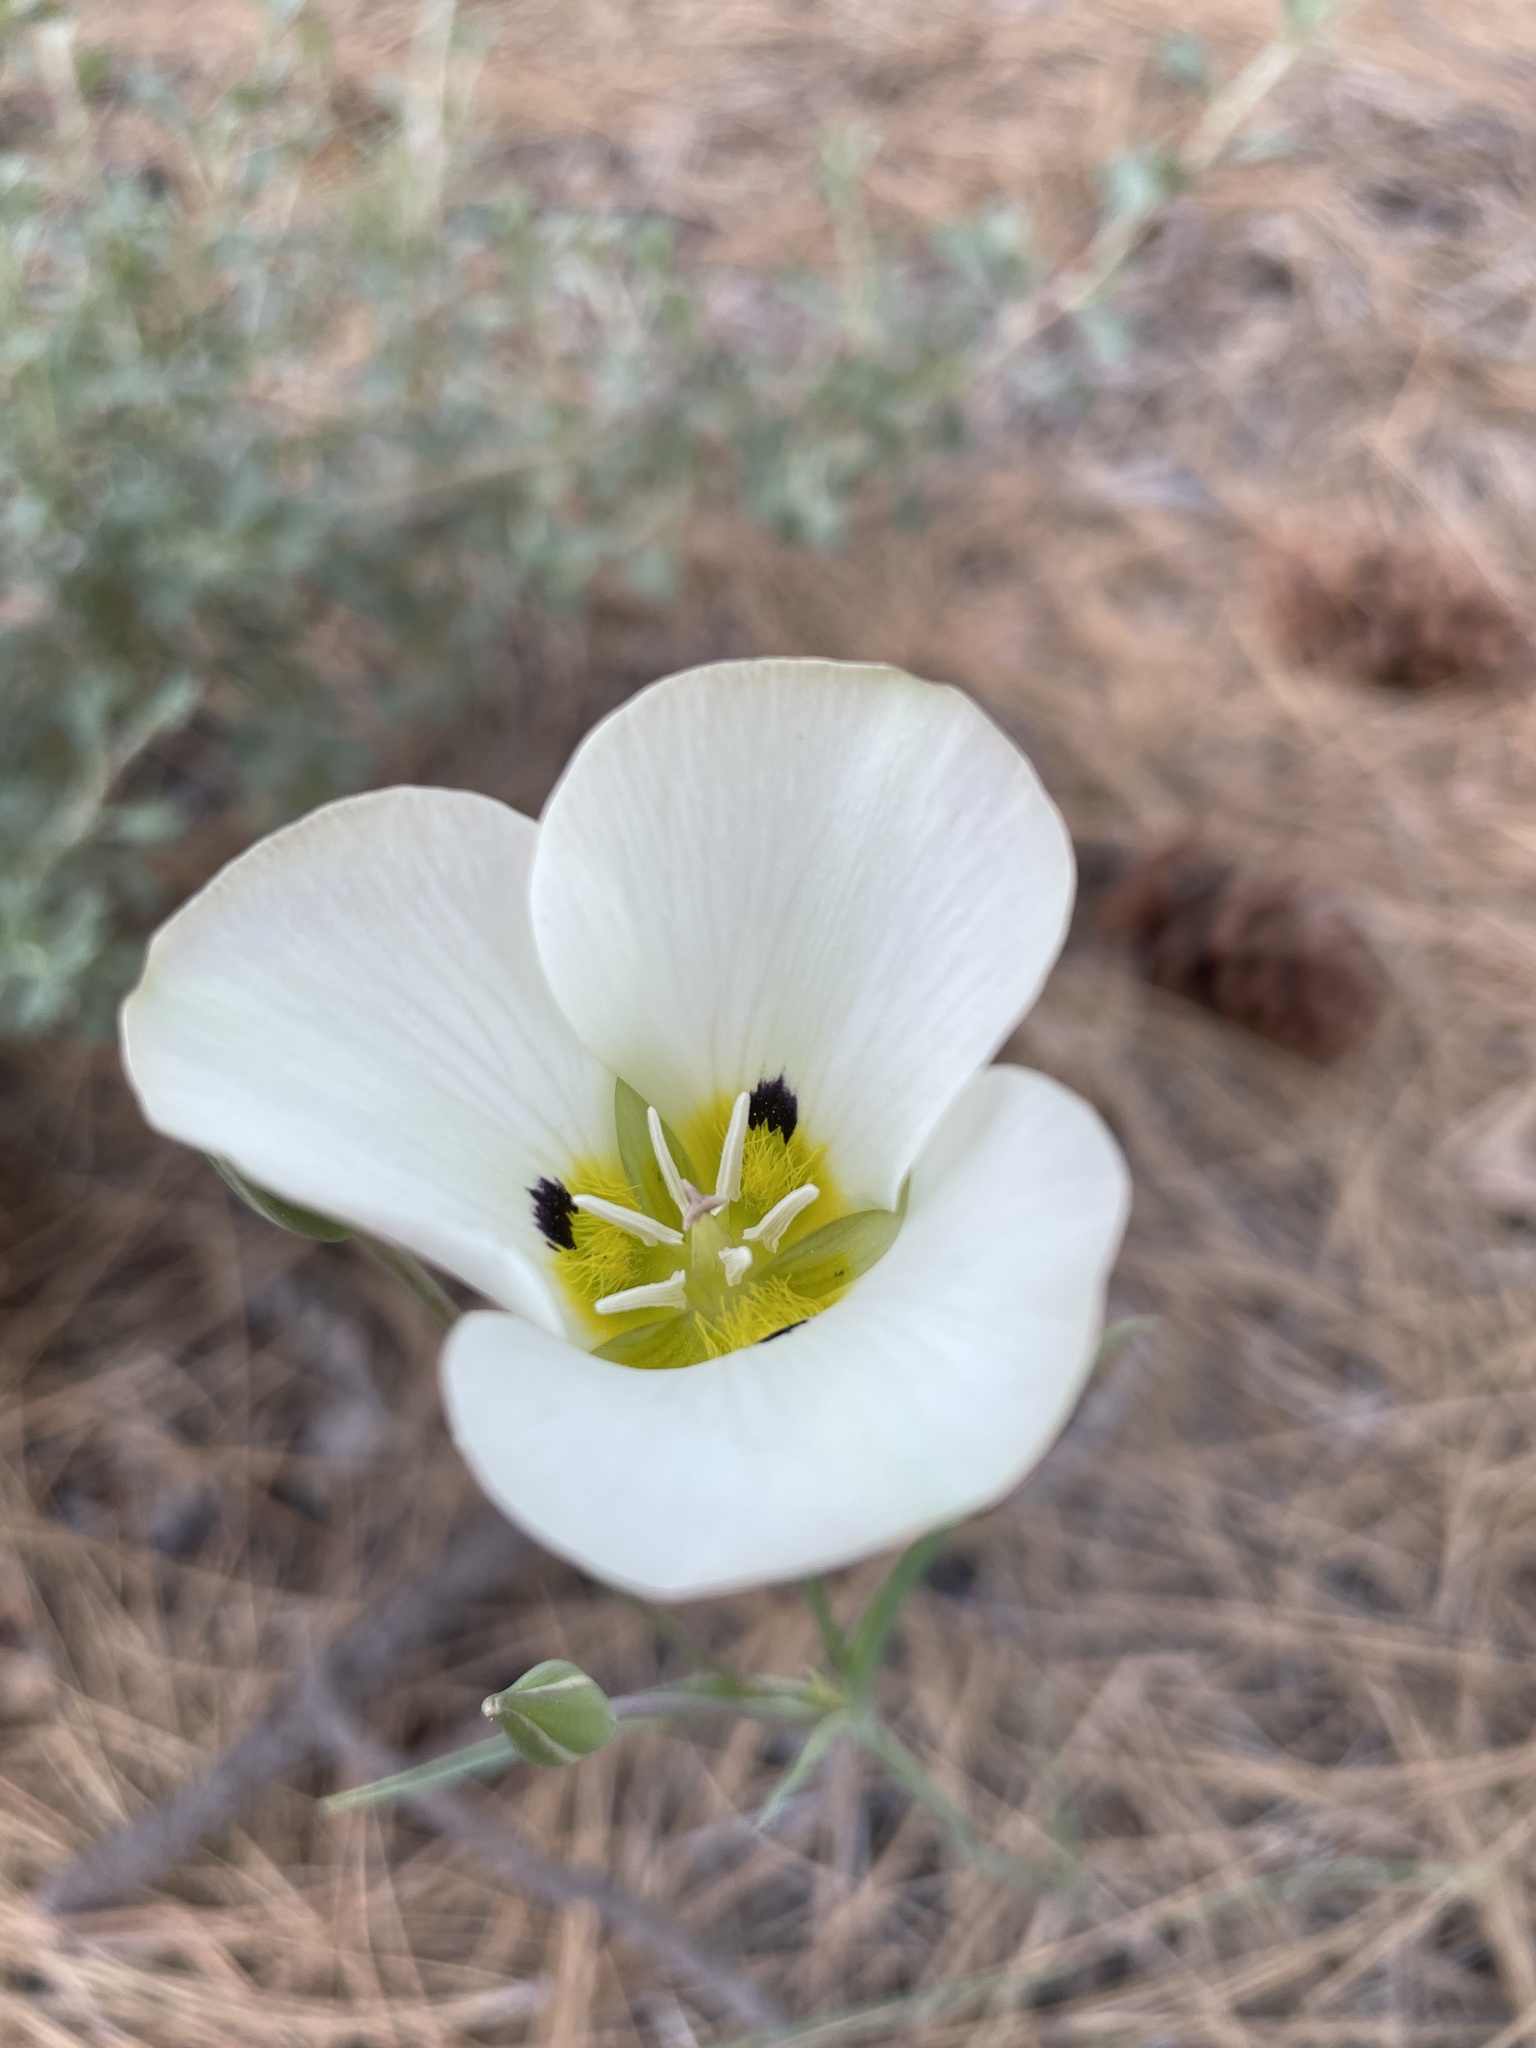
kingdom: Plantae
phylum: Tracheophyta
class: Liliopsida
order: Liliales
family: Liliaceae
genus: Calochortus
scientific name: Calochortus leichtlinii
